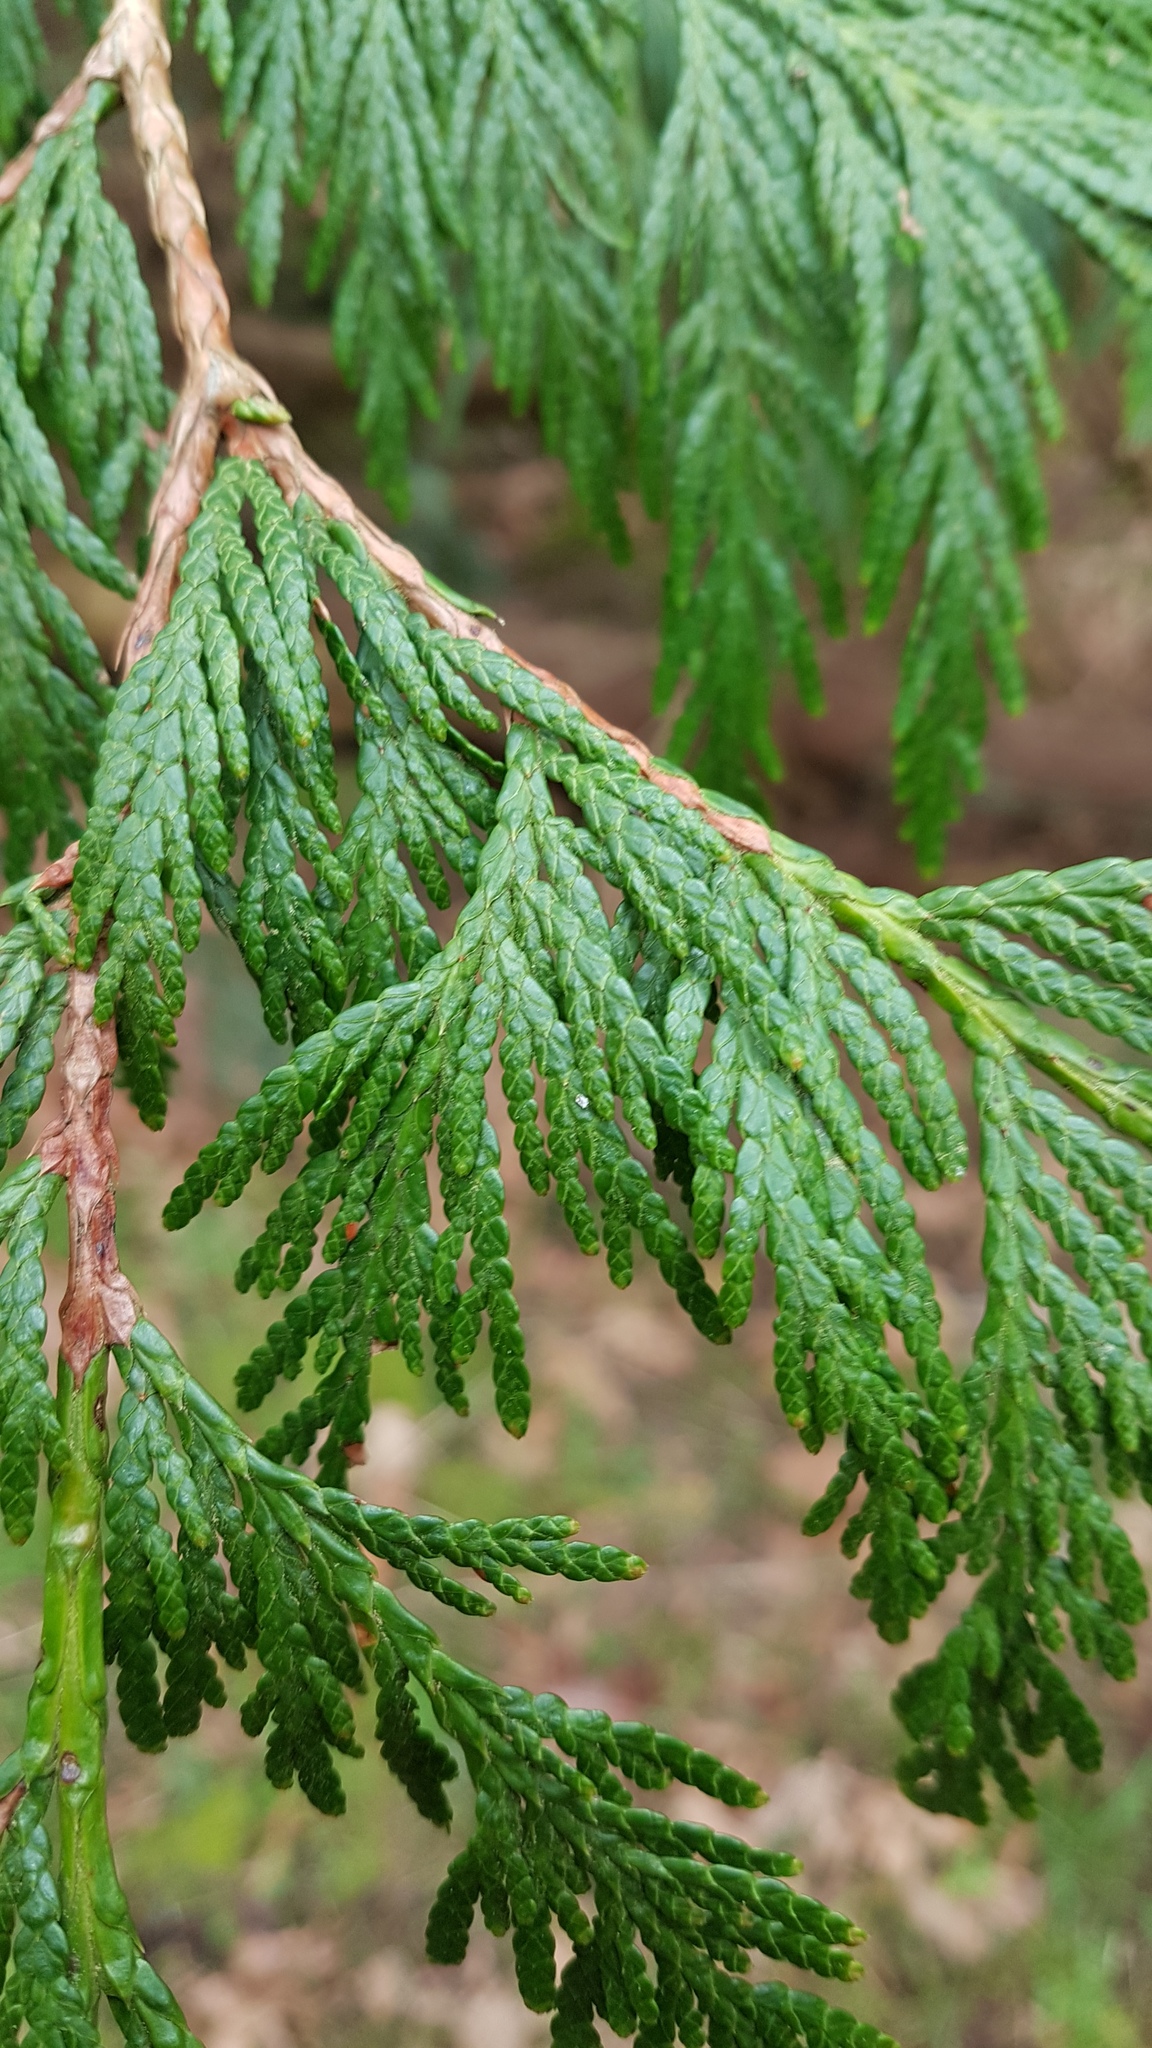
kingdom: Plantae
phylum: Tracheophyta
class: Pinopsida
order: Pinales
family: Cupressaceae
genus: Thuja
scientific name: Thuja plicata
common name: Western red-cedar
